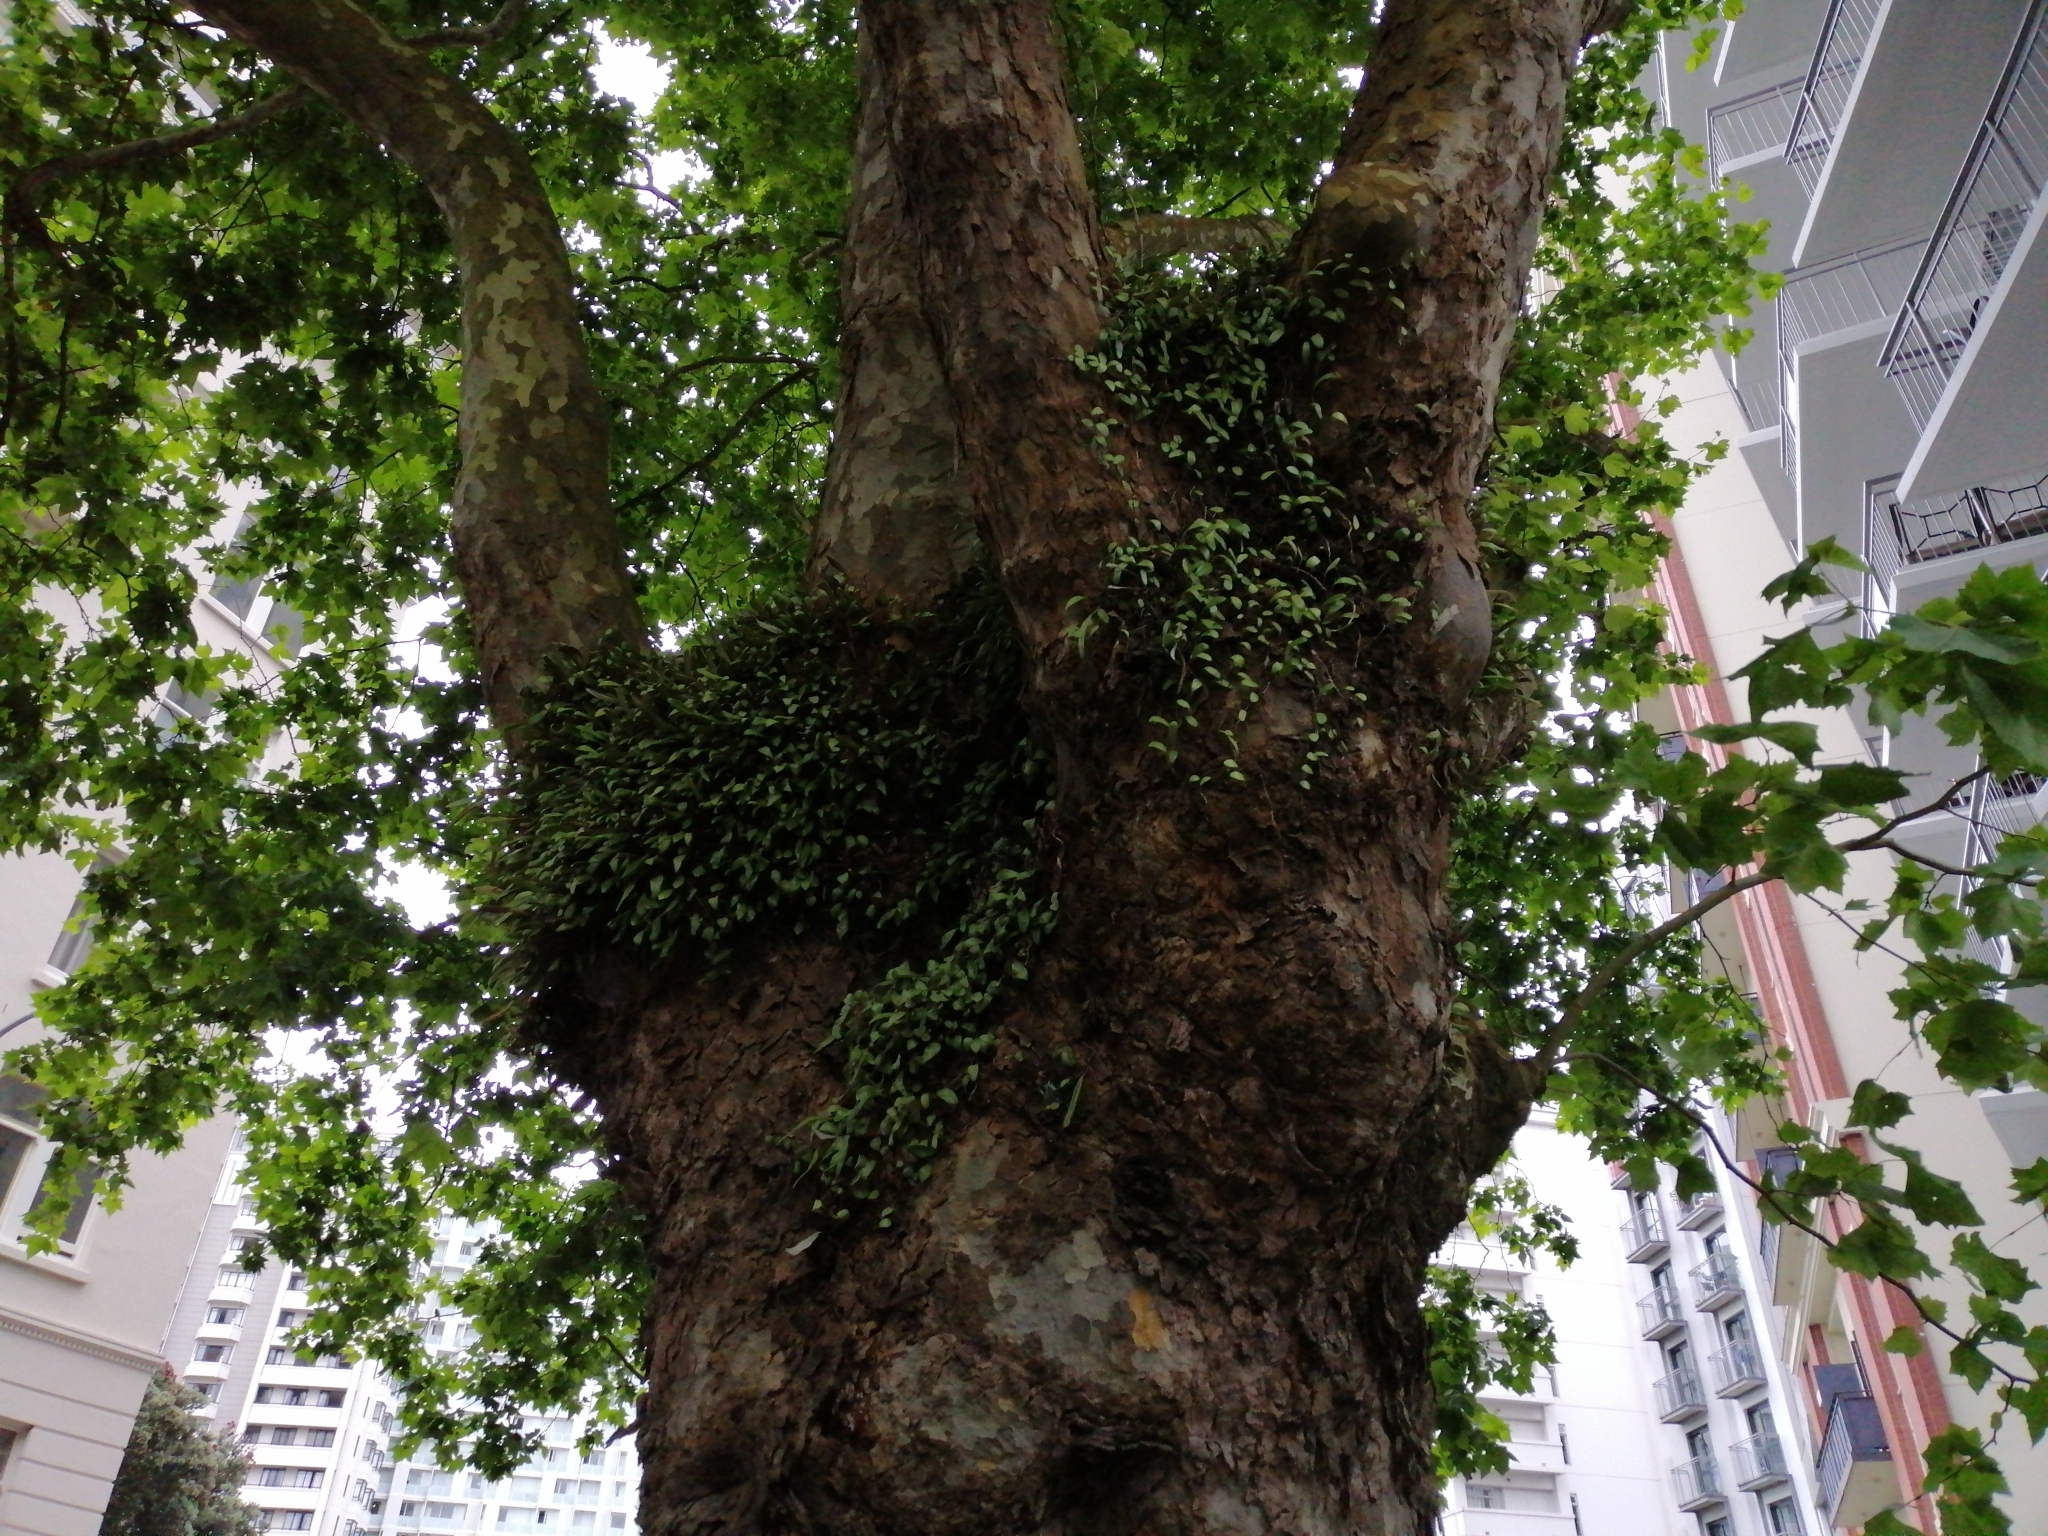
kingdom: Plantae
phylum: Tracheophyta
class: Polypodiopsida
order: Polypodiales
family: Polypodiaceae
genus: Pyrrosia
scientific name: Pyrrosia eleagnifolia
